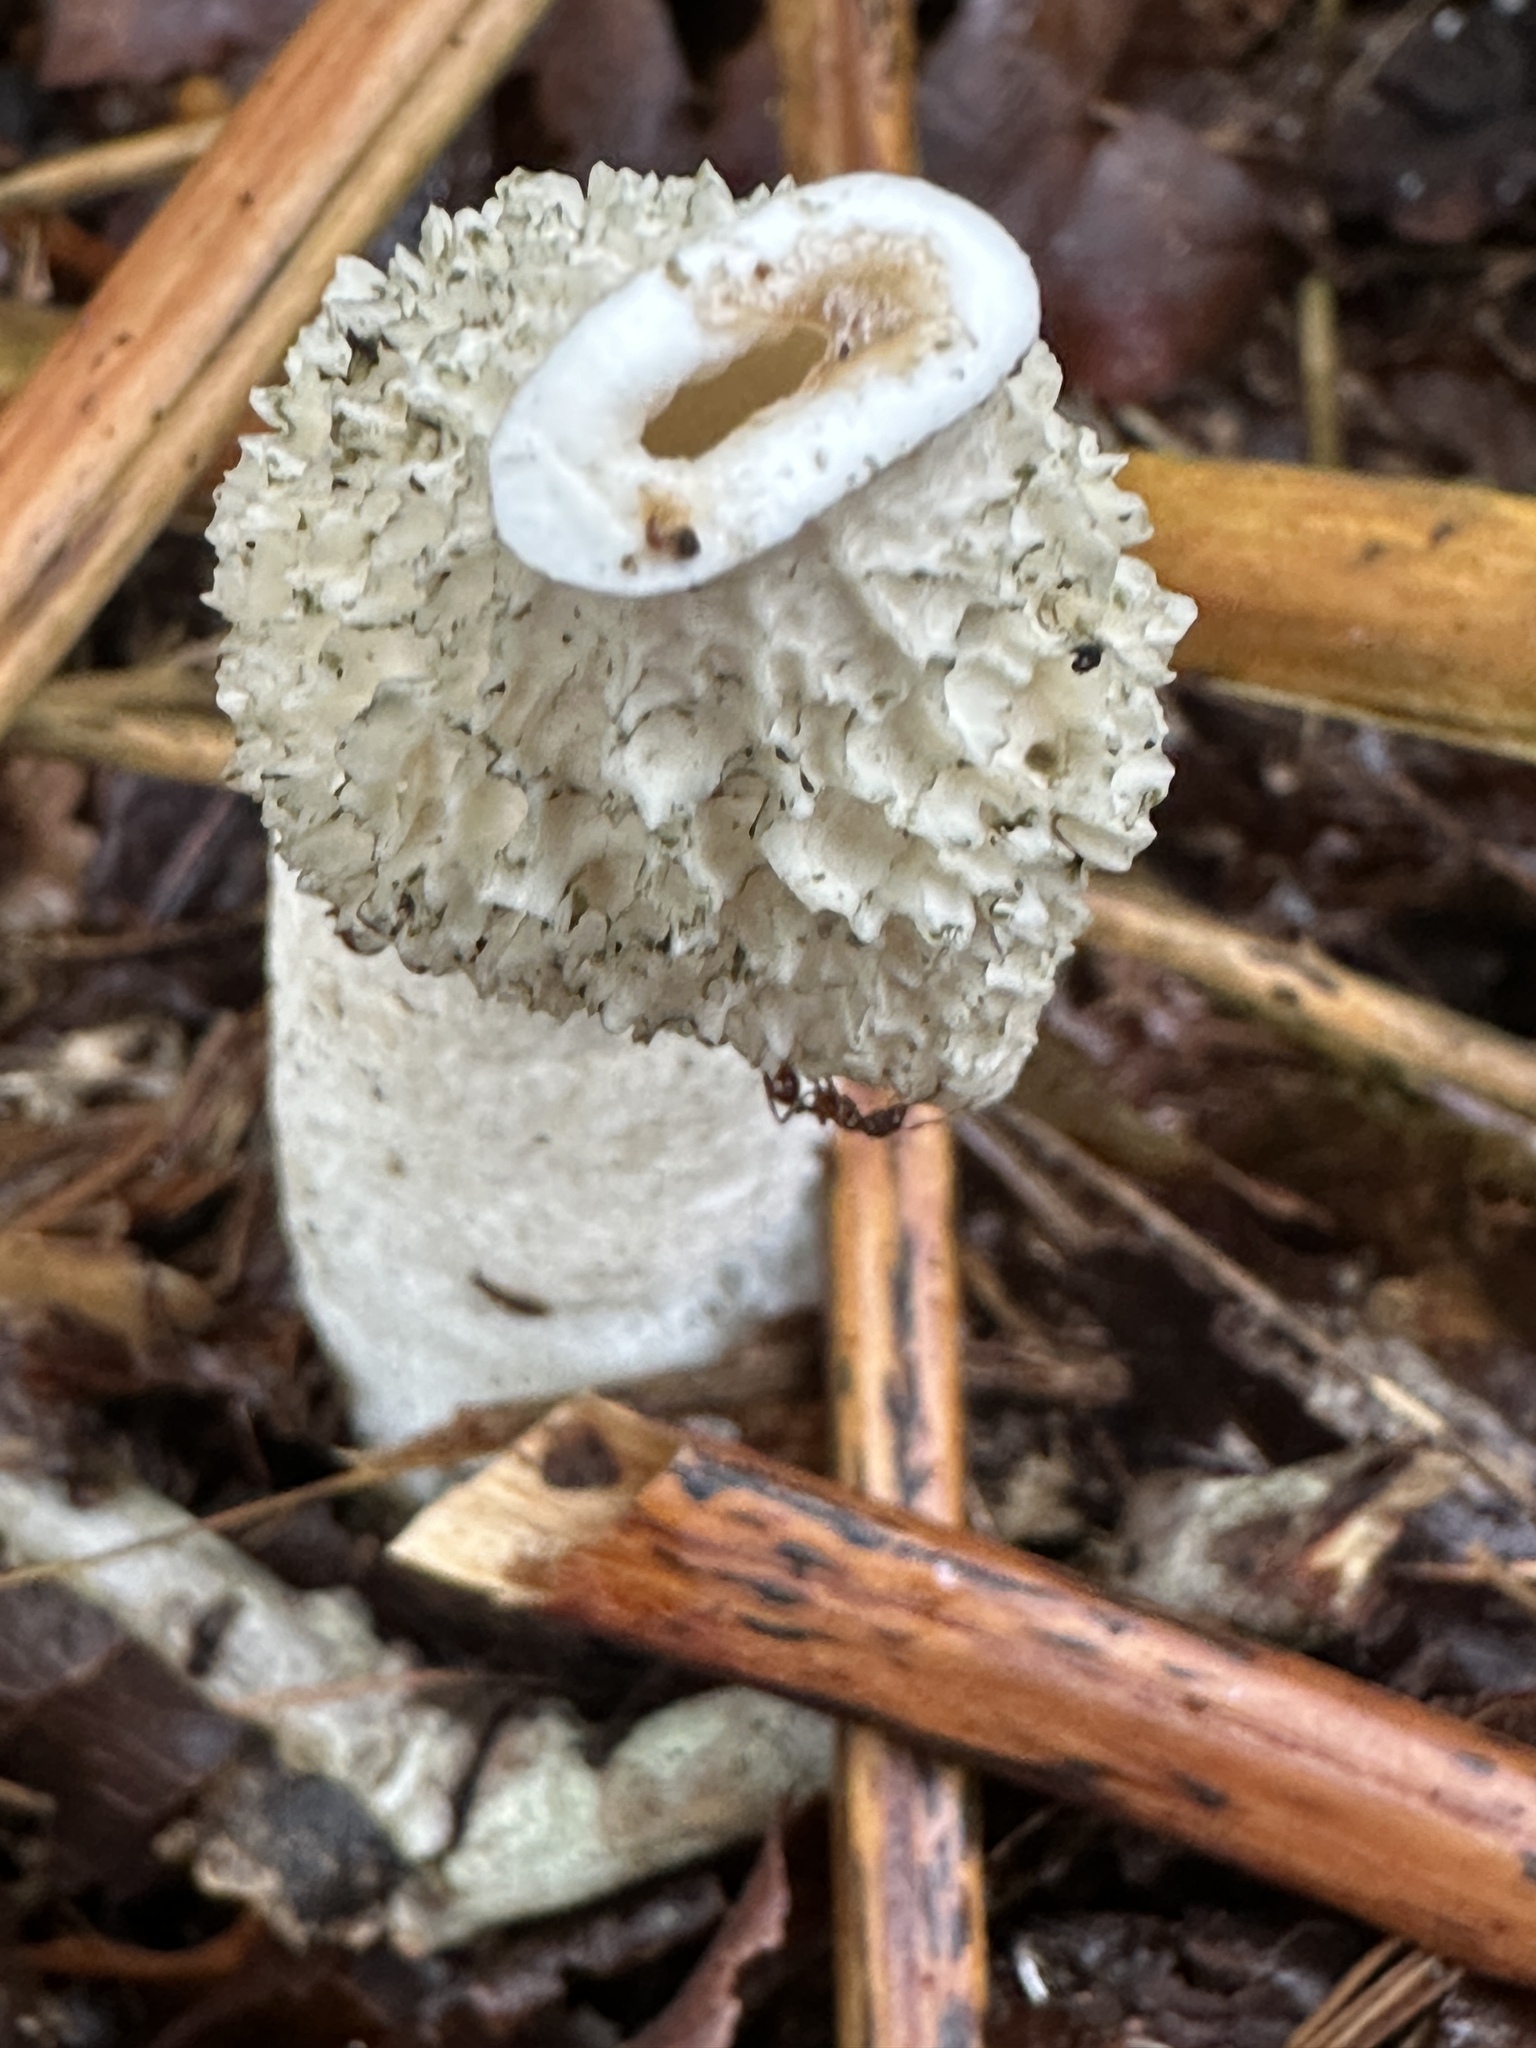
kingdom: Fungi
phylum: Basidiomycota
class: Agaricomycetes
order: Phallales
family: Phallaceae
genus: Phallus
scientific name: Phallus impudicus
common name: Common stinkhorn
